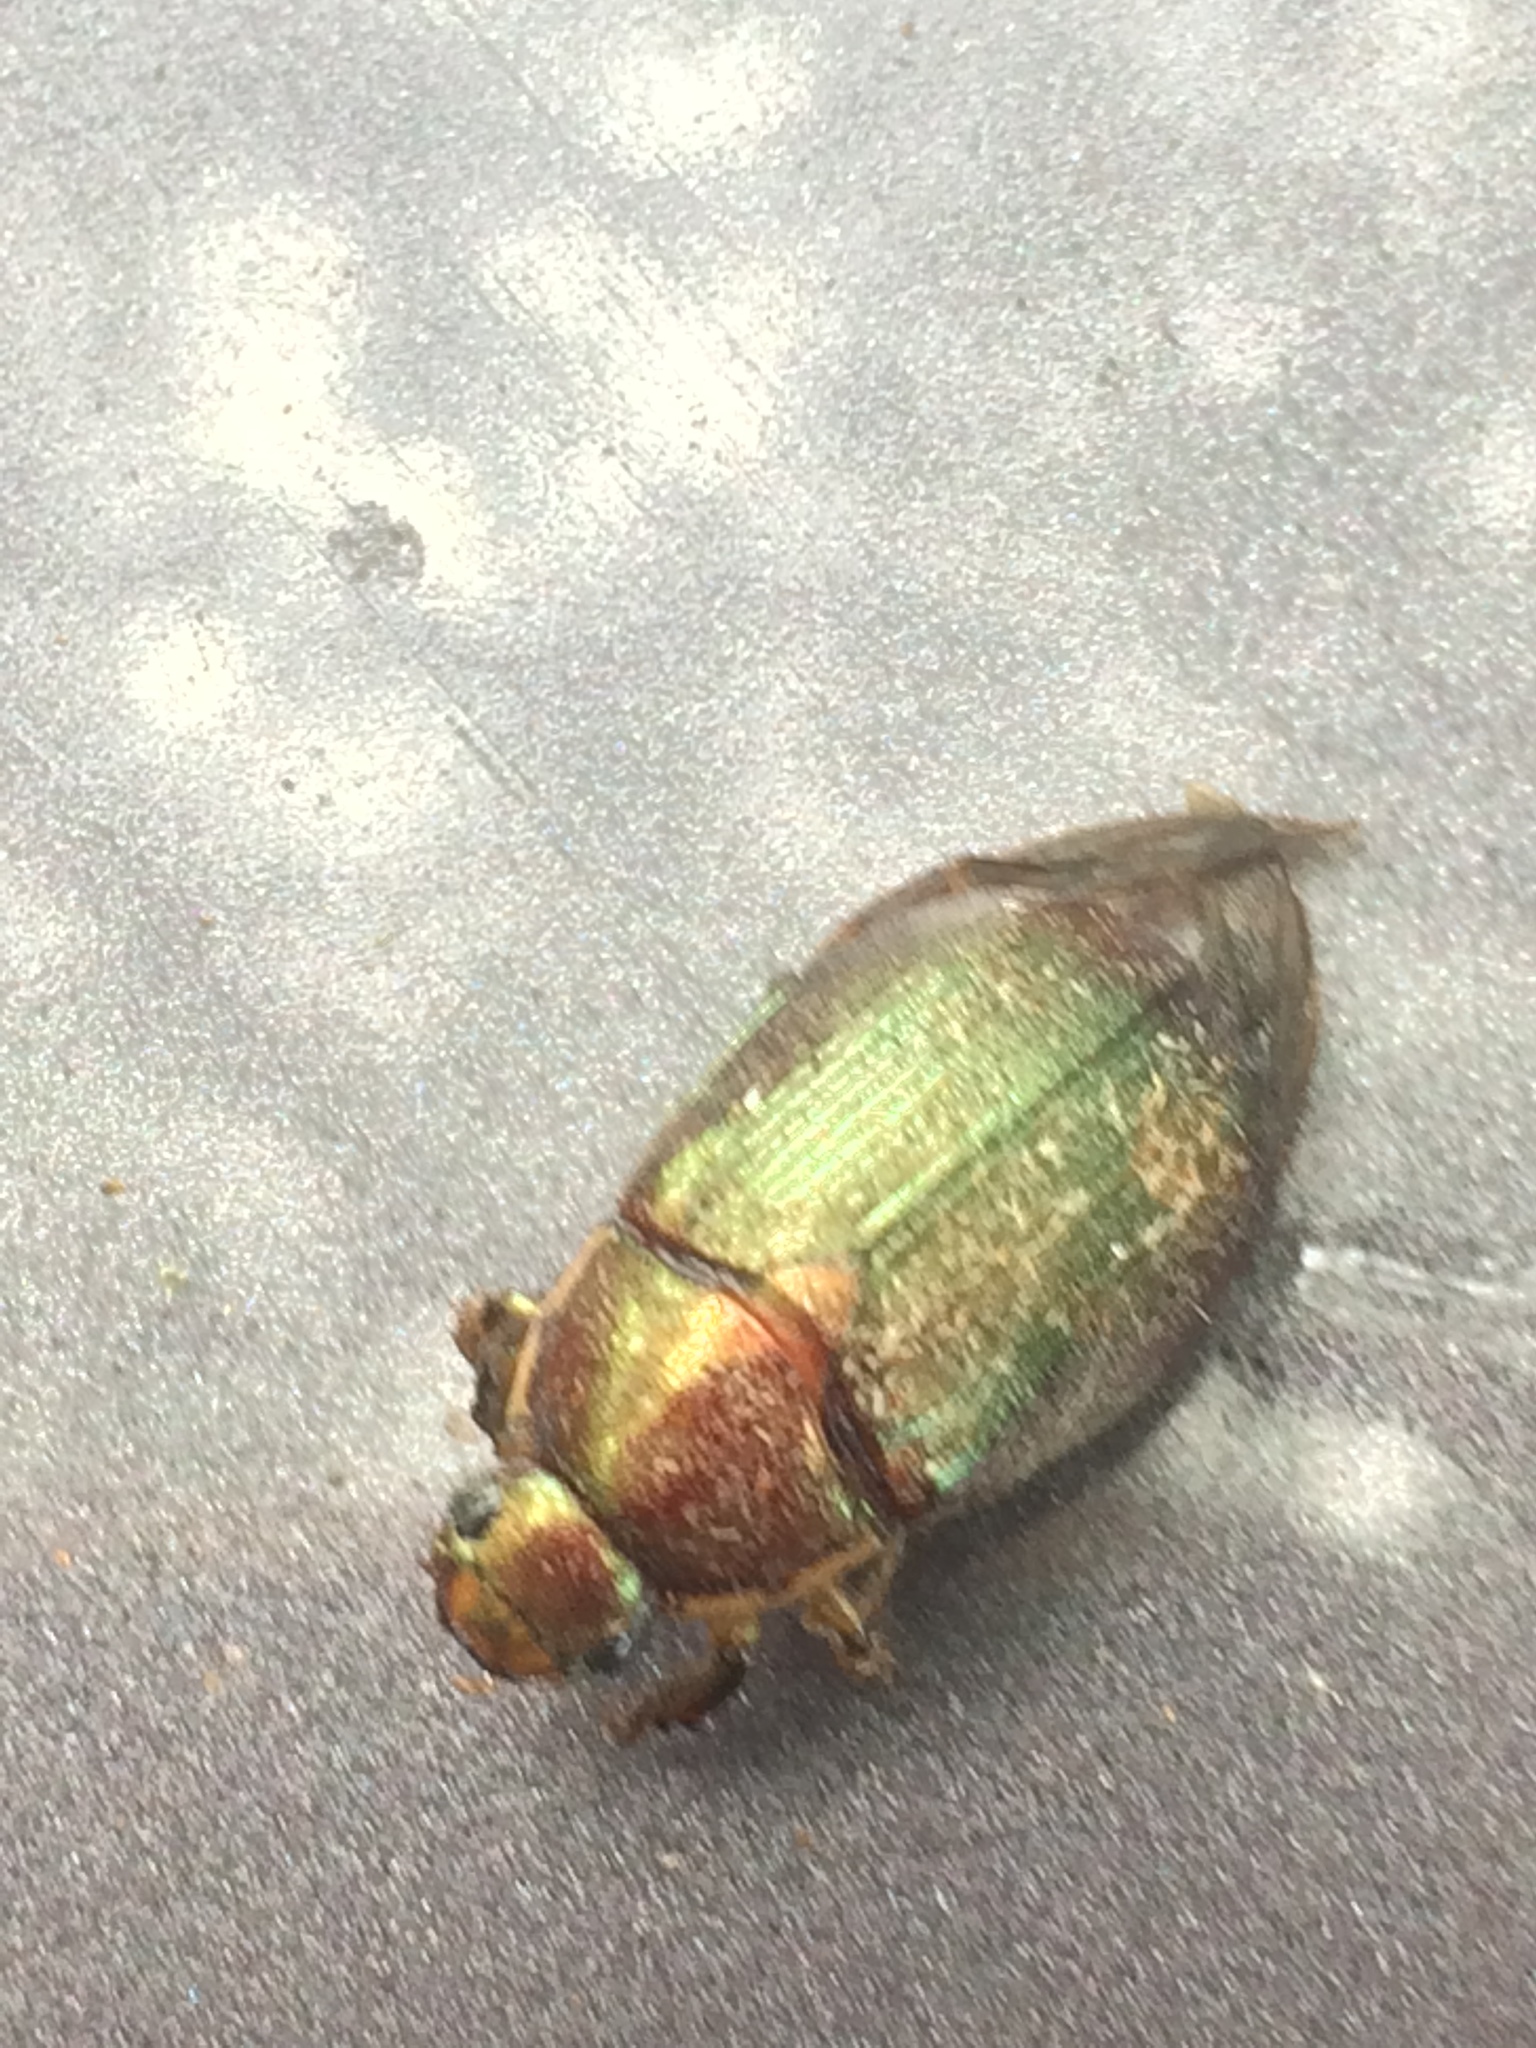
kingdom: Animalia
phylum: Arthropoda
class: Insecta
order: Coleoptera
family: Scarabaeidae
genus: Callistethus
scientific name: Callistethus marginatus
